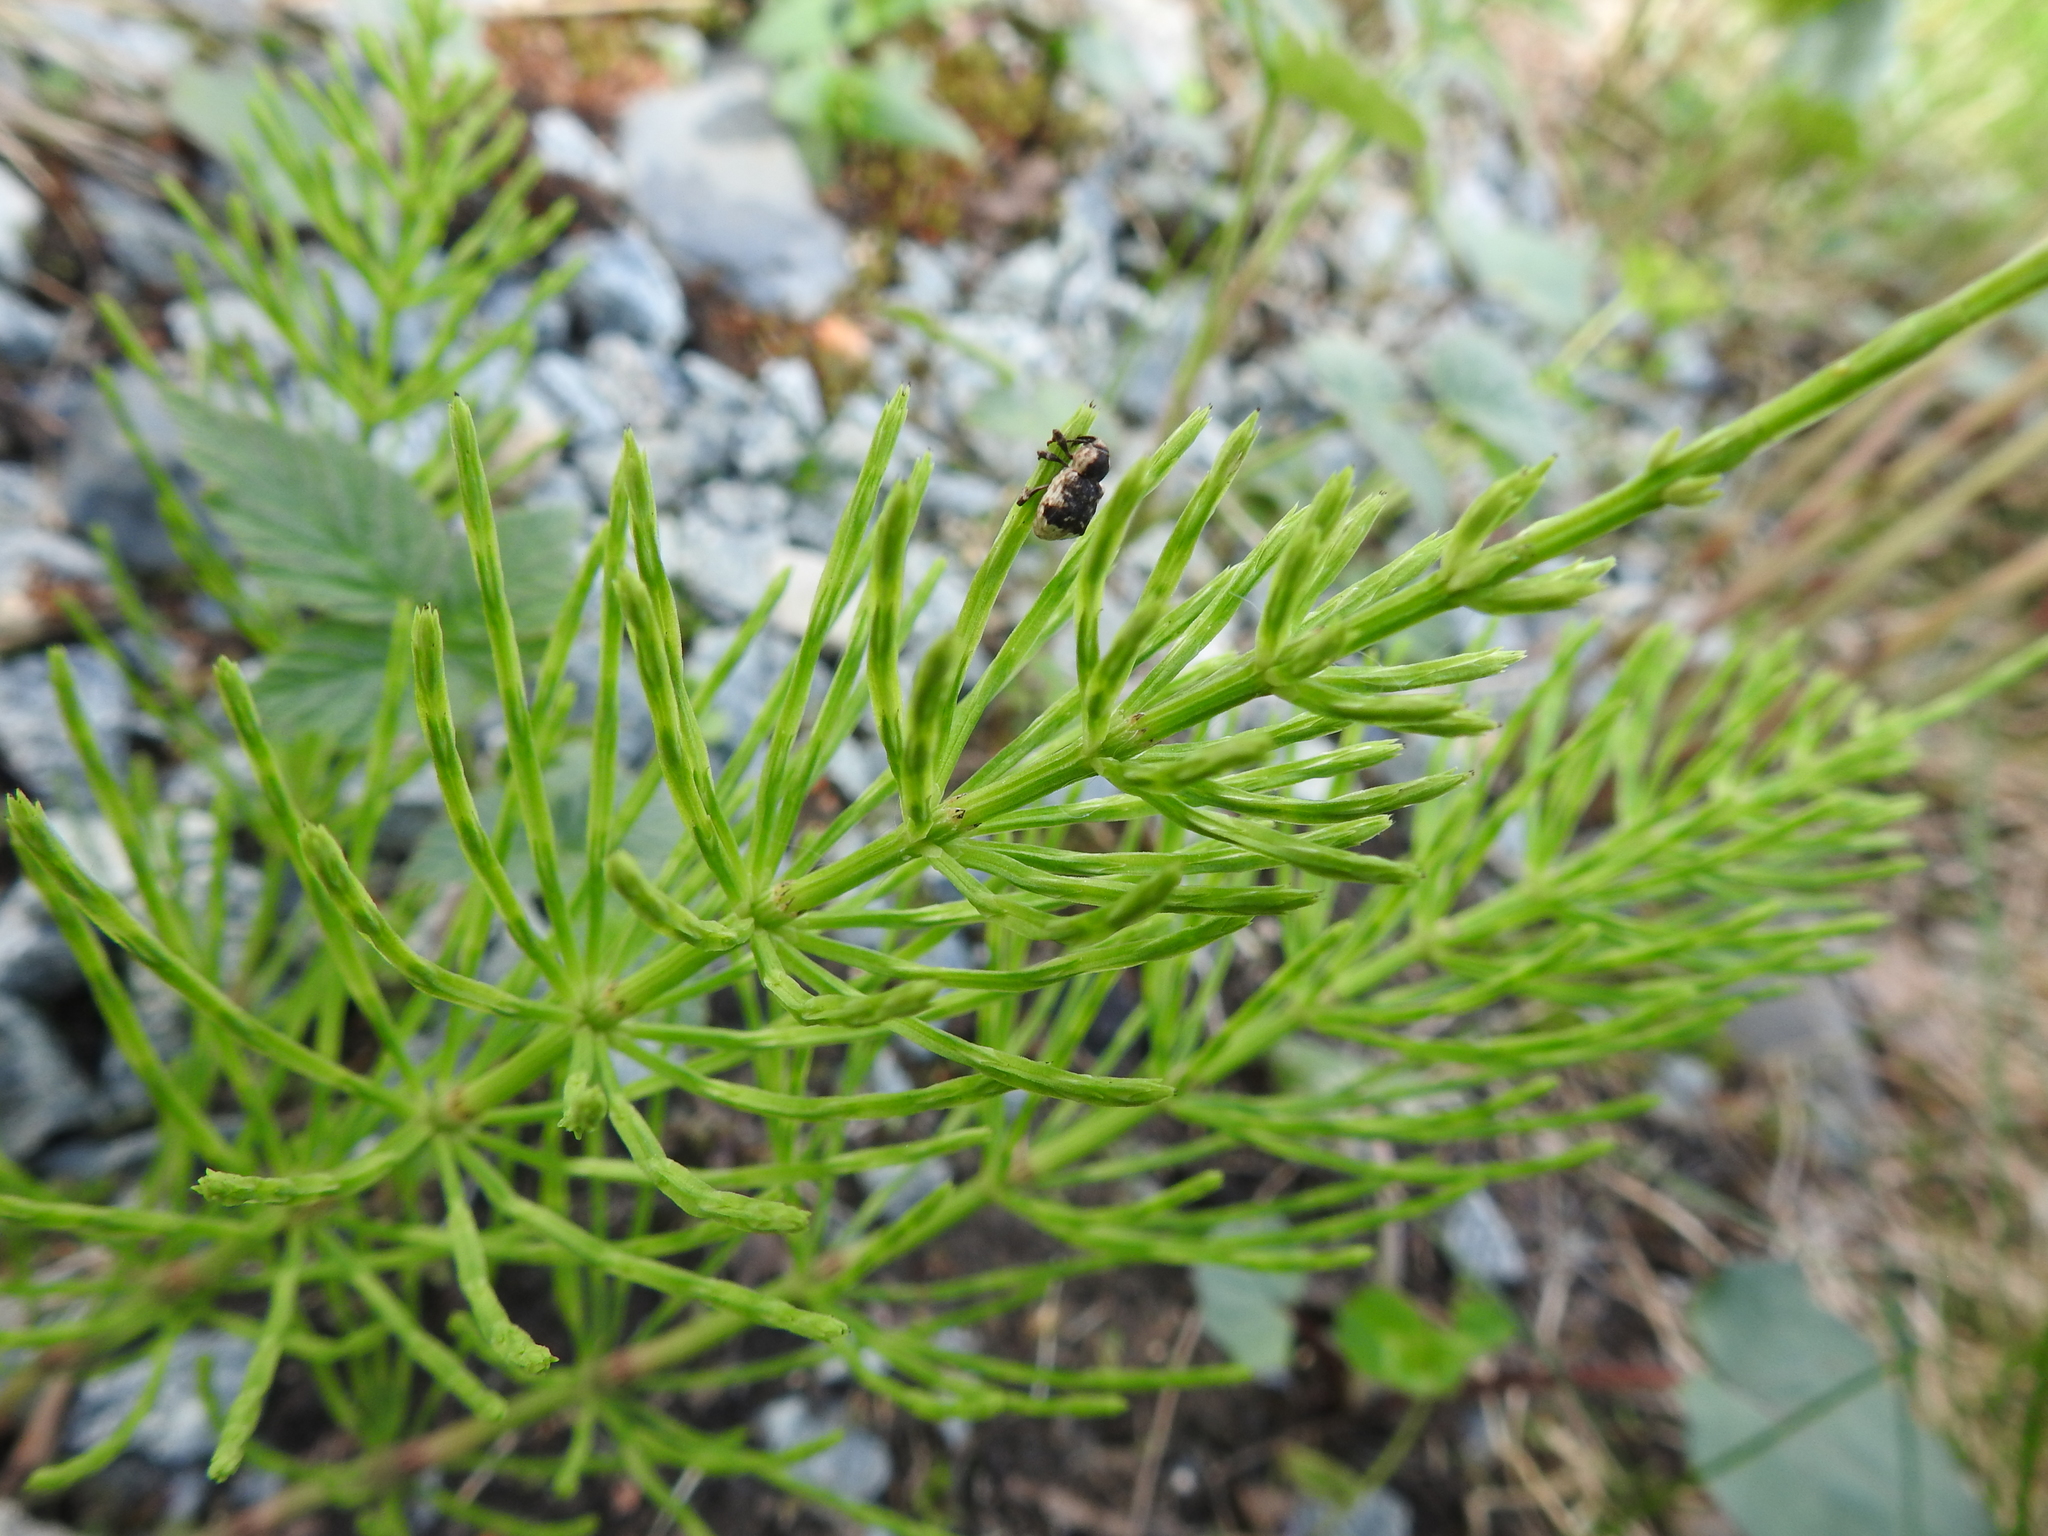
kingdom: Plantae
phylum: Tracheophyta
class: Polypodiopsida
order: Equisetales
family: Equisetaceae
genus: Equisetum
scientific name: Equisetum arvense
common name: Field horsetail
